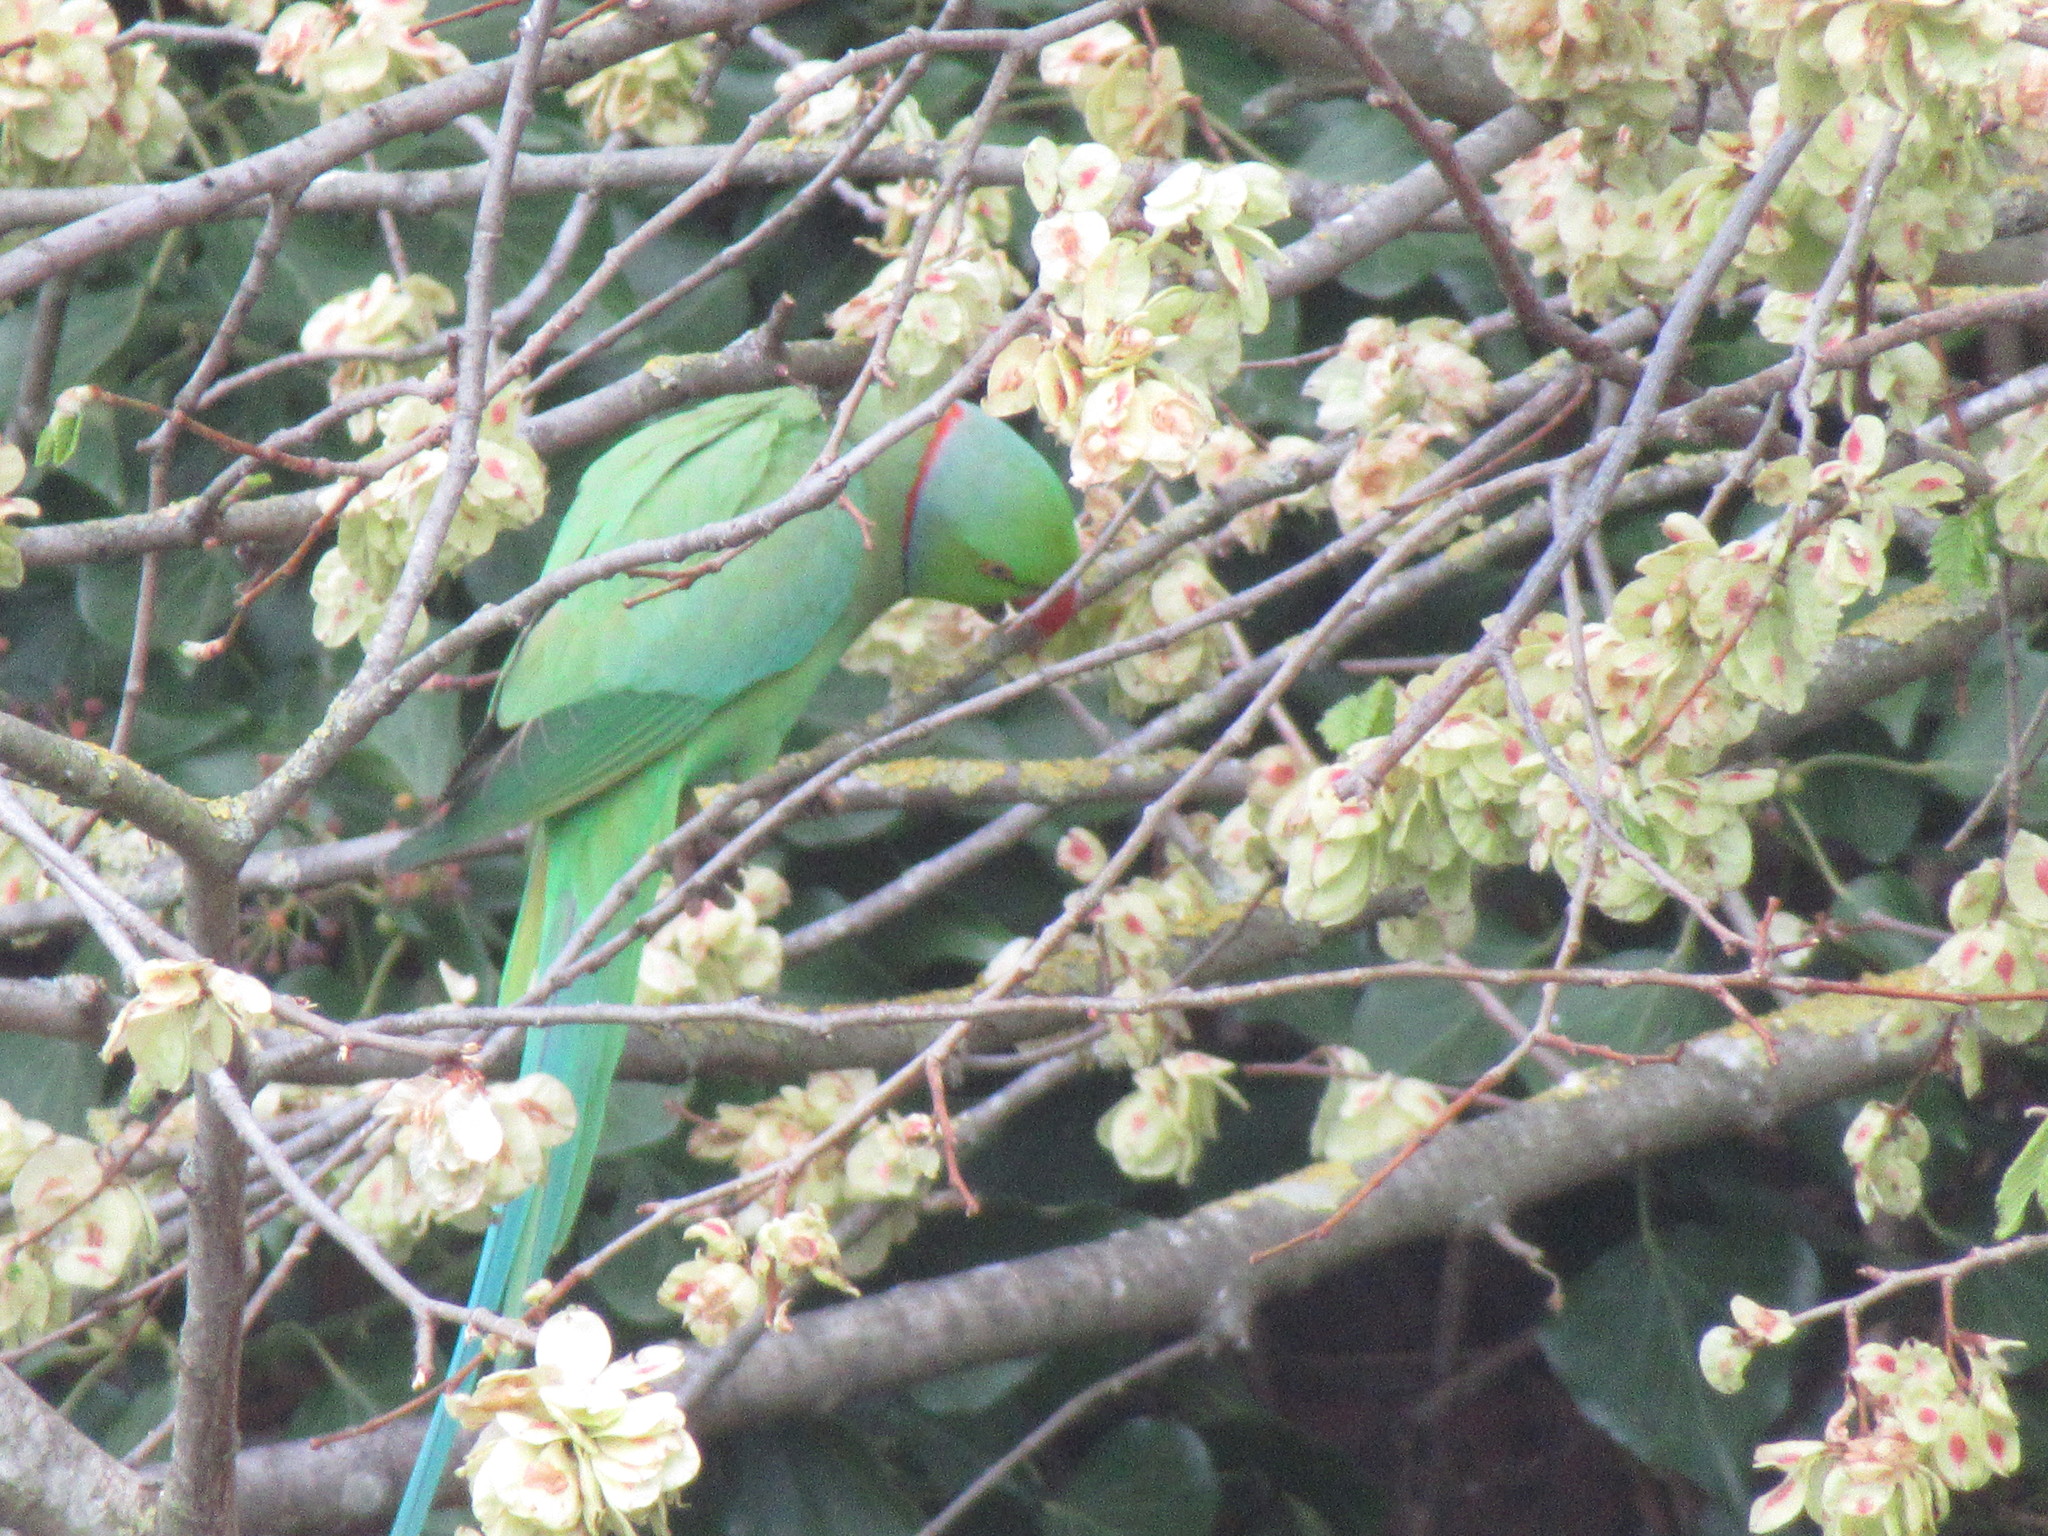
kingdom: Animalia
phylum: Chordata
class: Aves
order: Psittaciformes
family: Psittacidae
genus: Psittacula
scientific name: Psittacula krameri
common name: Rose-ringed parakeet
